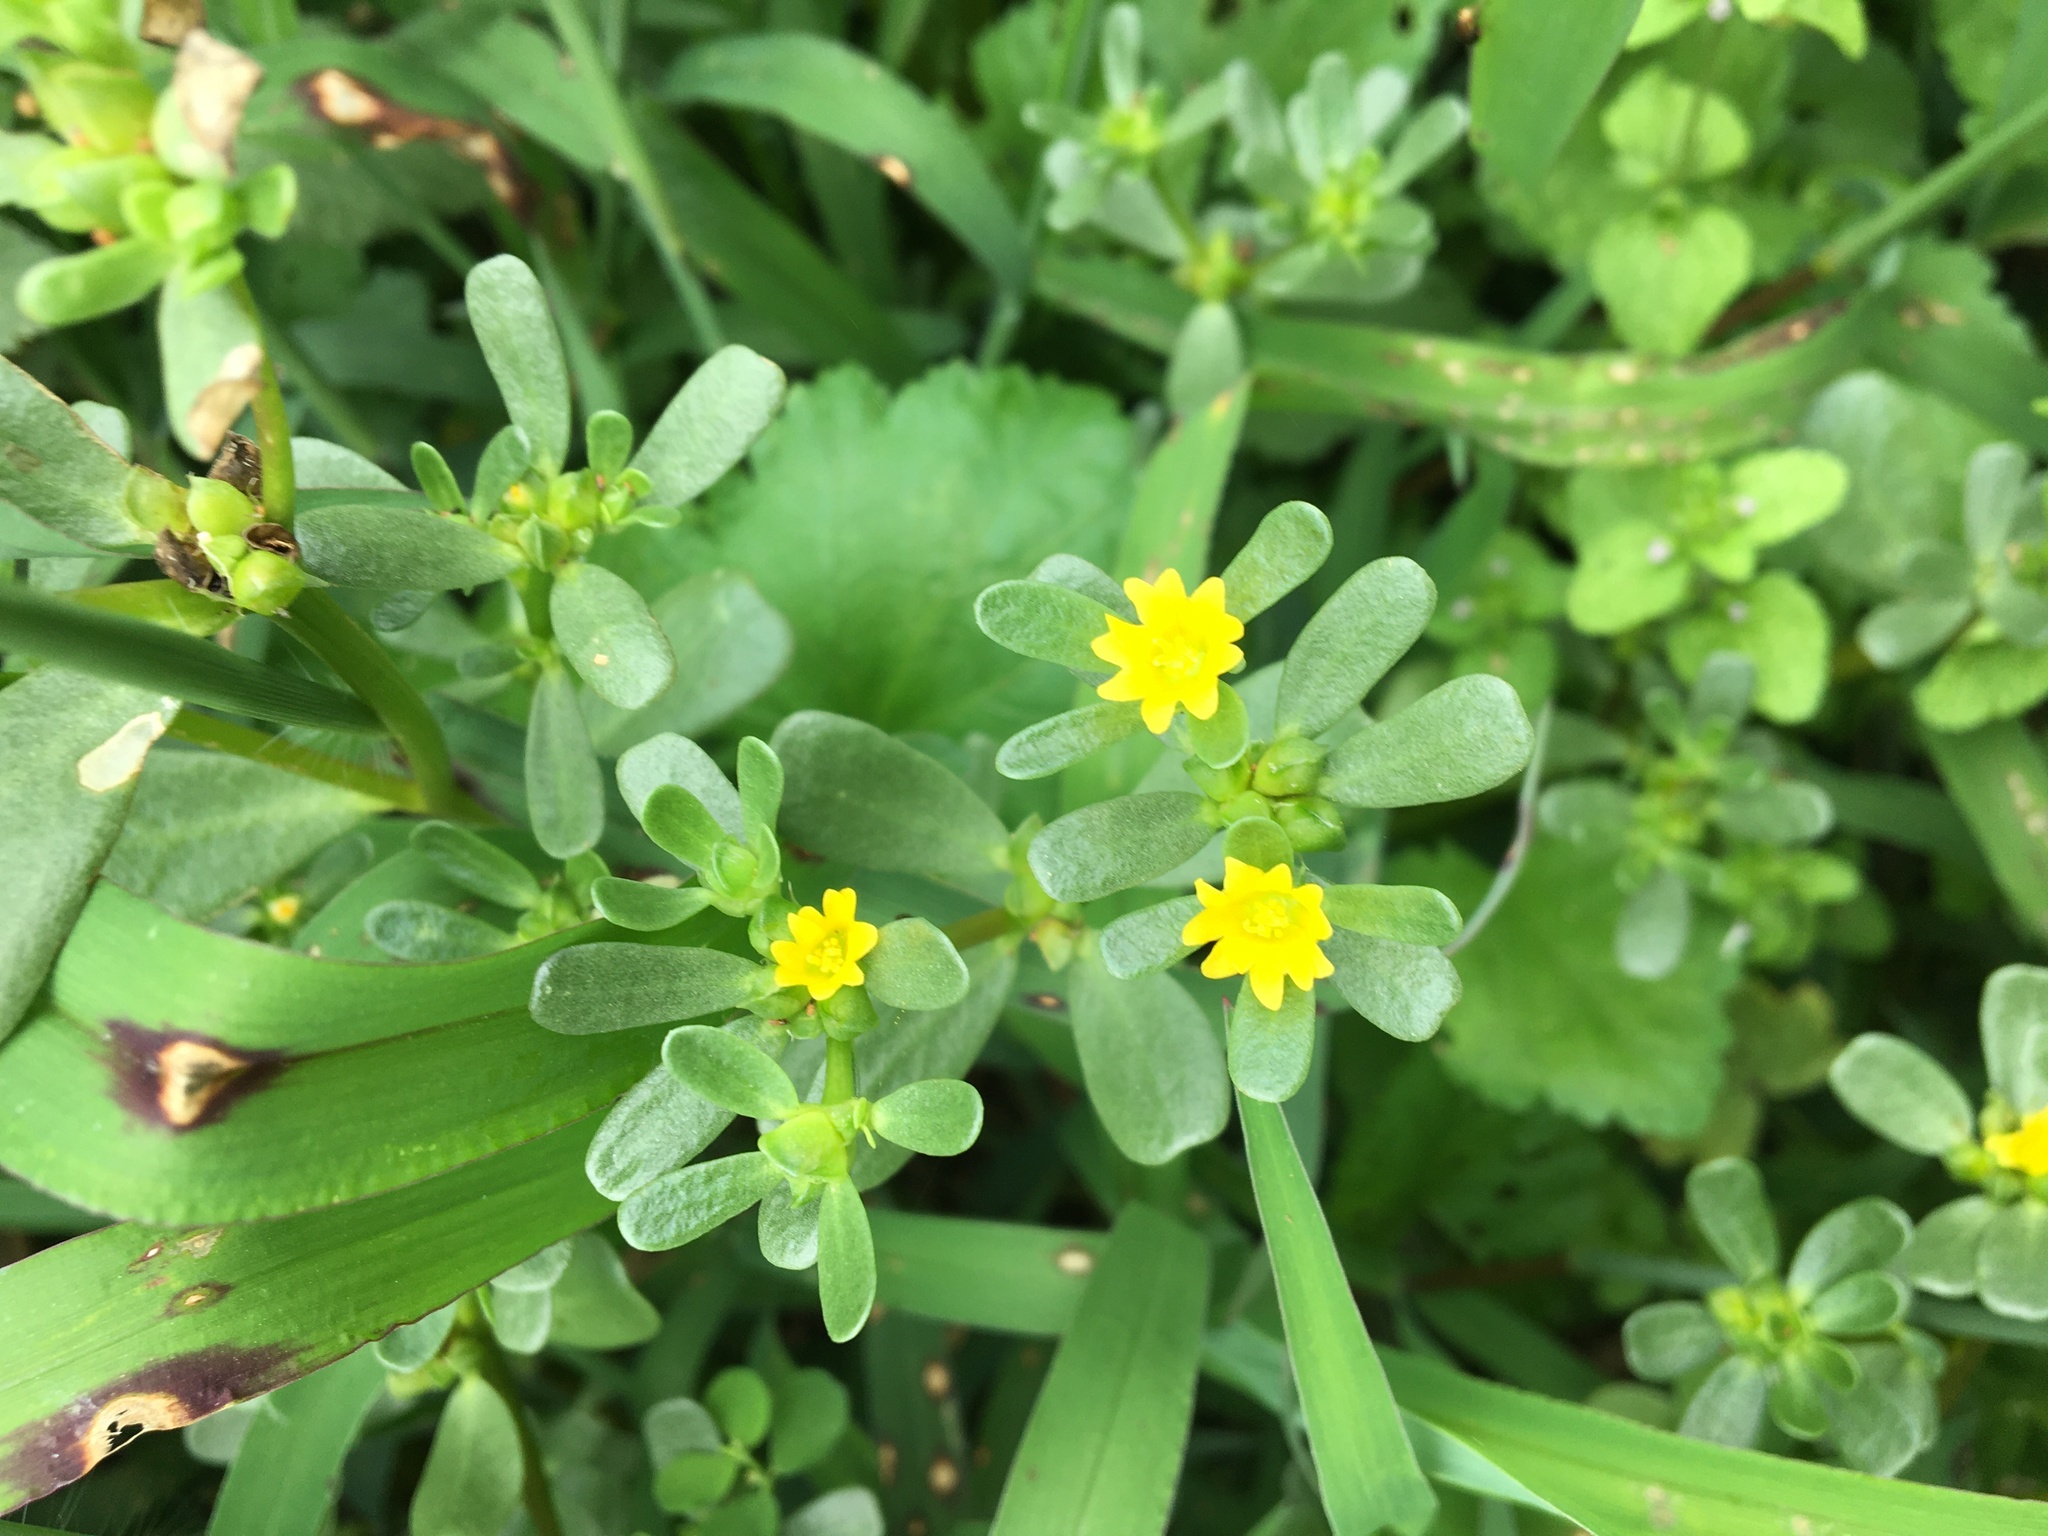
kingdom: Plantae
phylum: Tracheophyta
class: Magnoliopsida
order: Caryophyllales
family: Portulacaceae
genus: Portulaca
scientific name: Portulaca oleracea
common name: Common purslane
